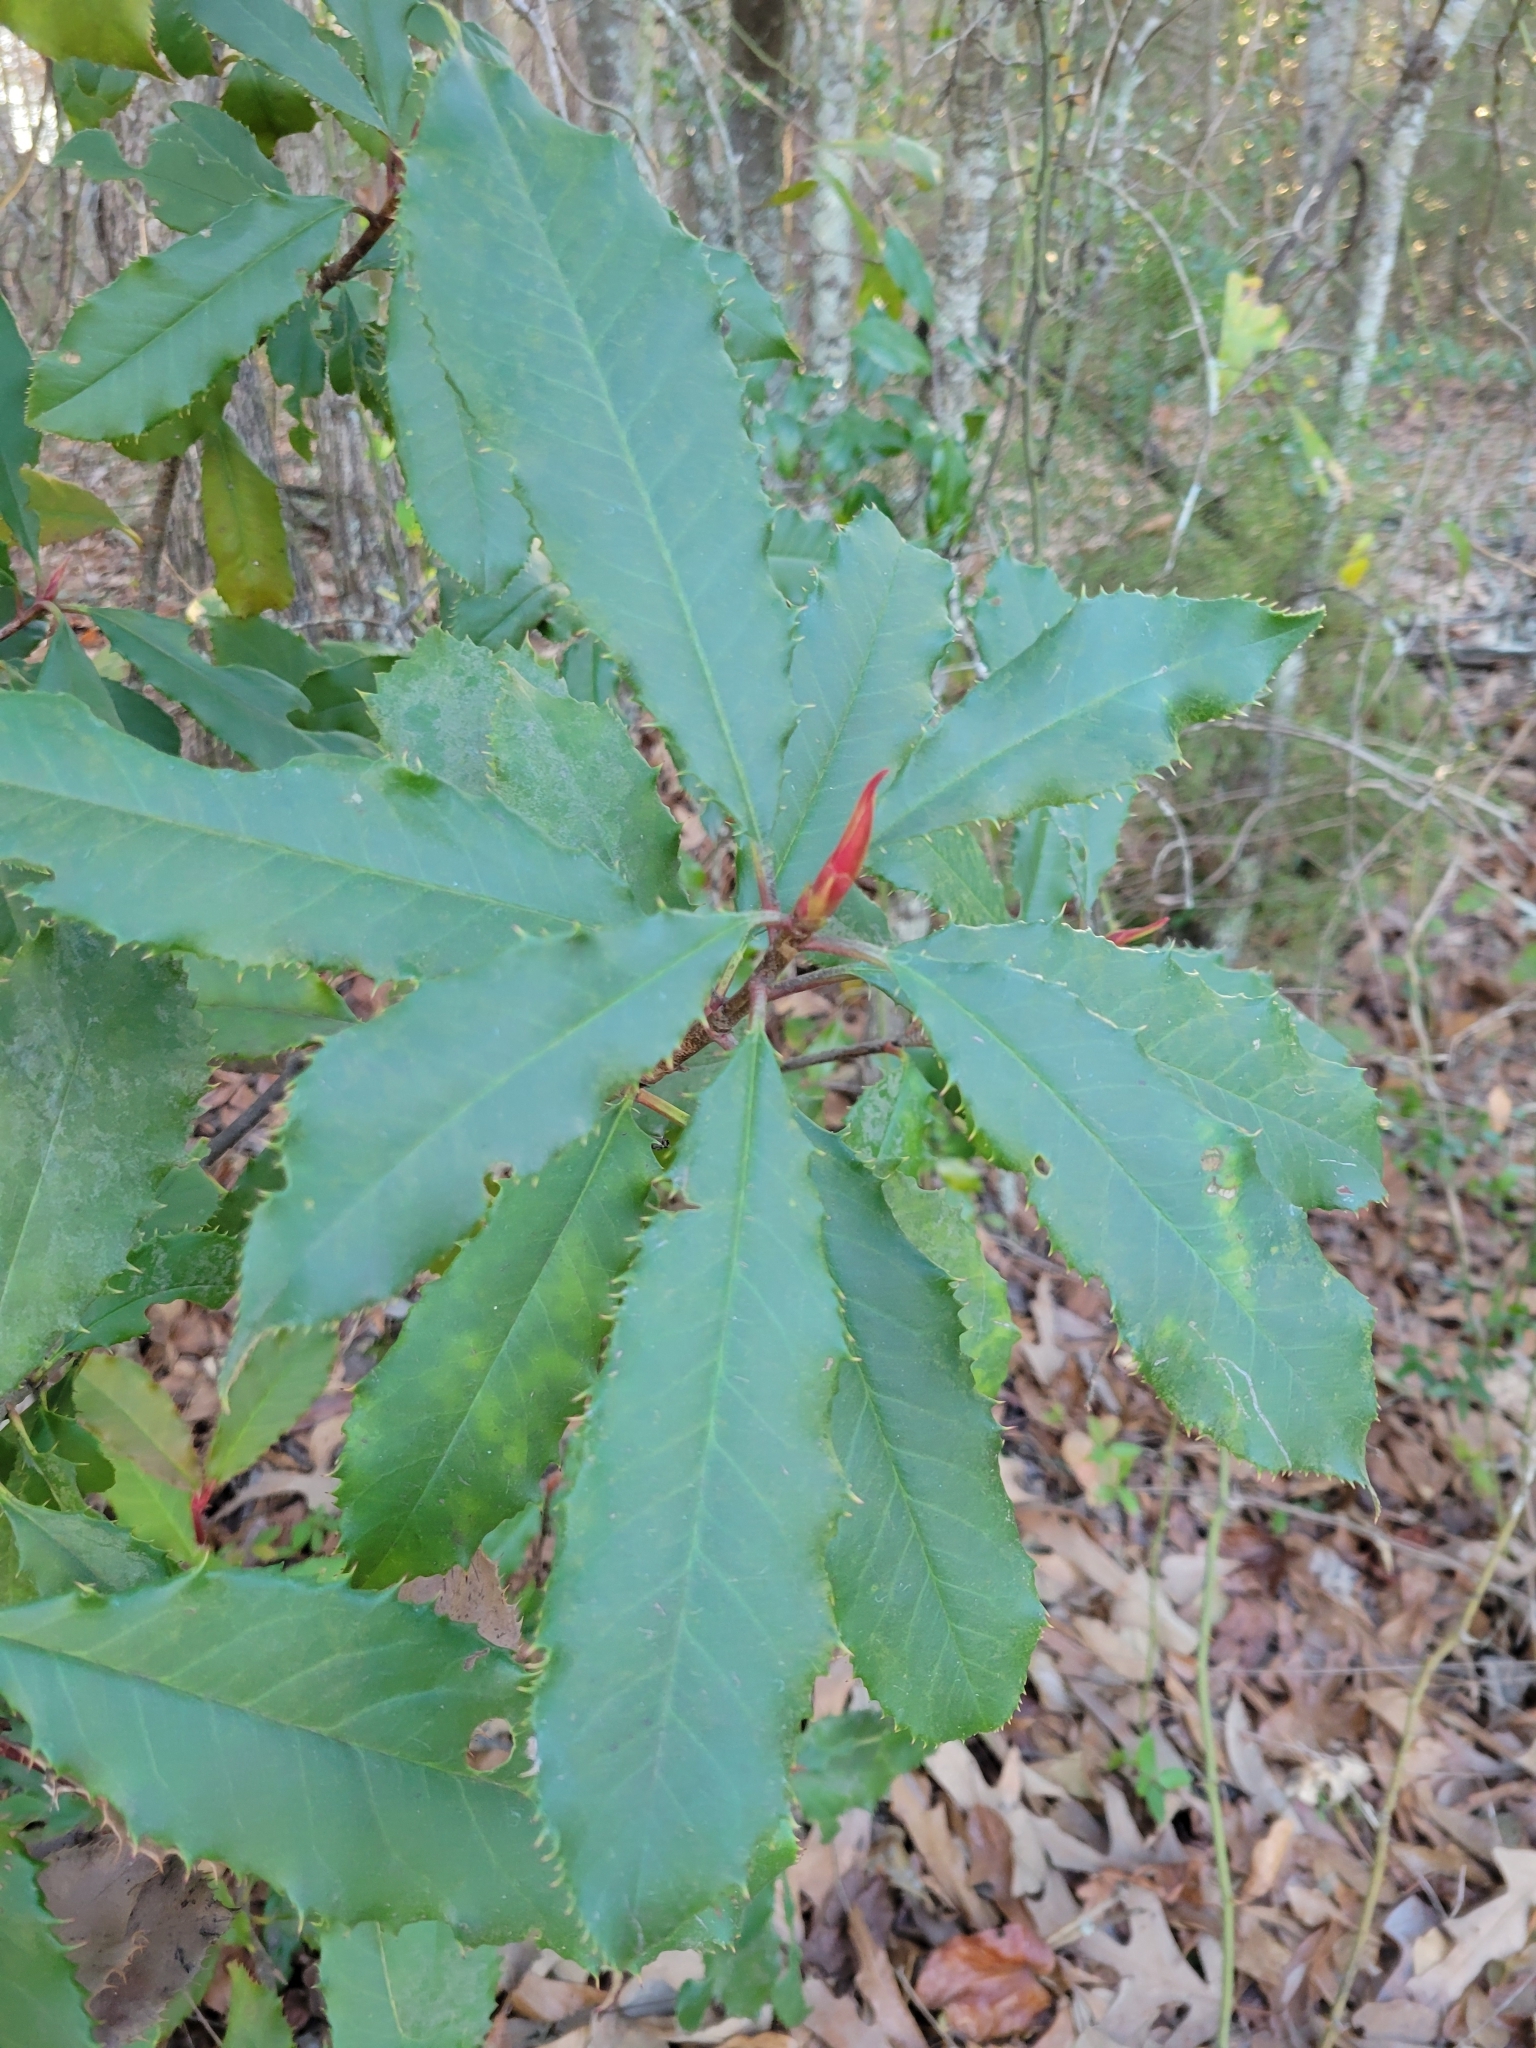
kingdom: Plantae
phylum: Tracheophyta
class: Magnoliopsida
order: Rosales
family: Rosaceae
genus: Photinia
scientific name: Photinia serratifolia
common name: Taiwanese photinia
